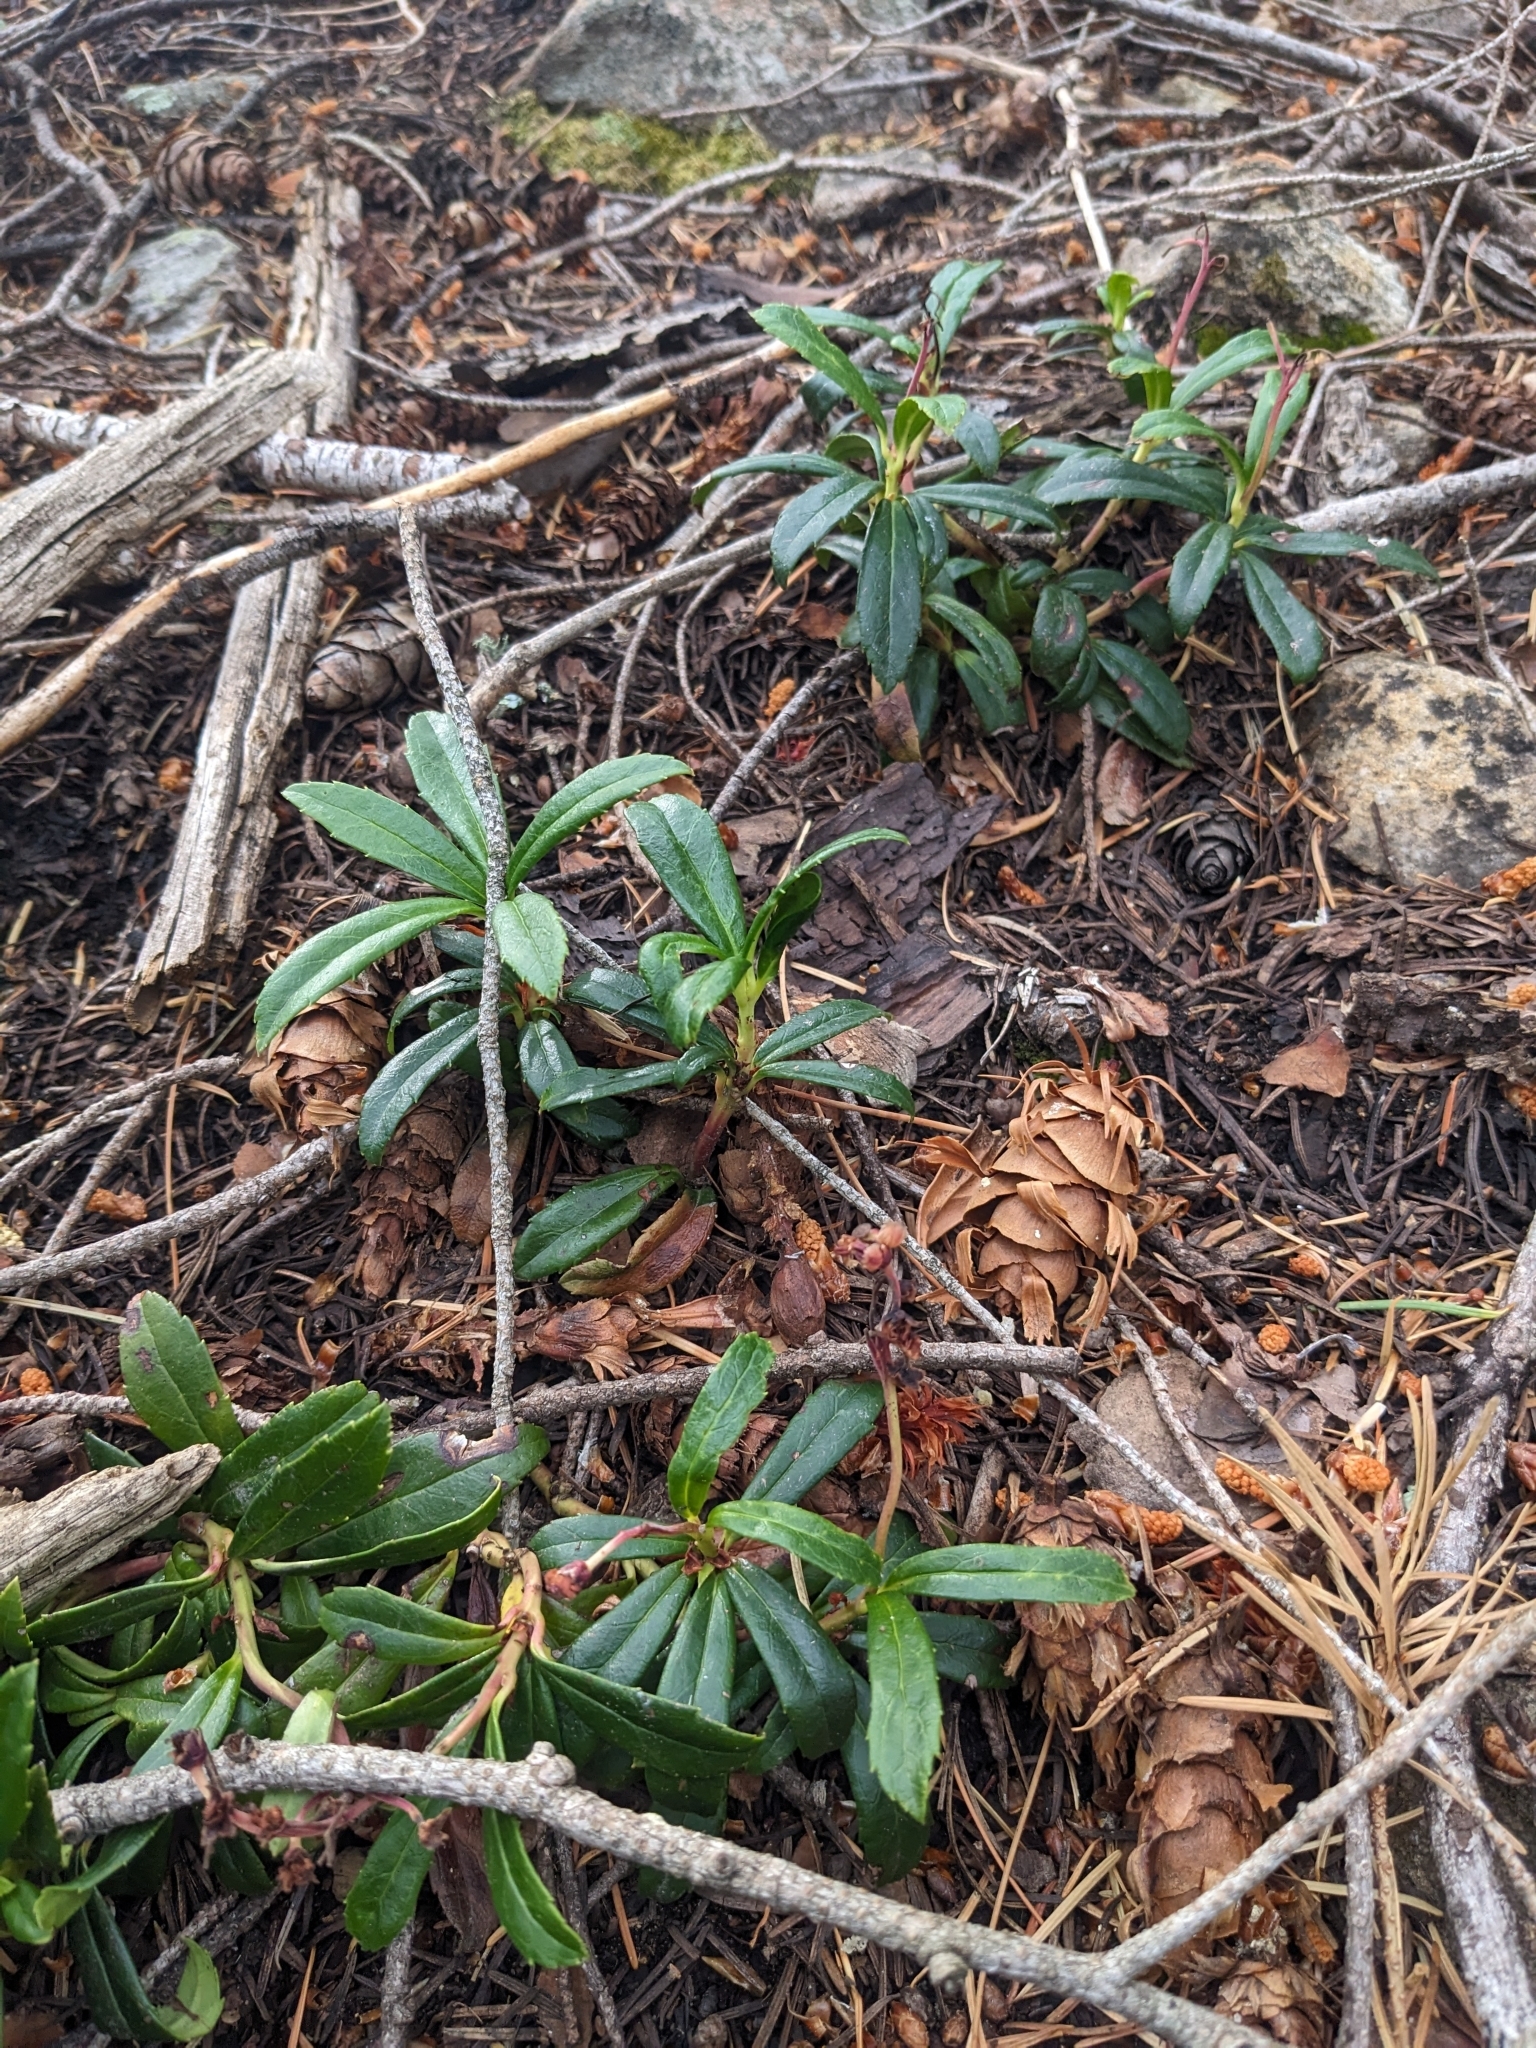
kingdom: Plantae
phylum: Tracheophyta
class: Magnoliopsida
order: Ericales
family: Ericaceae
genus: Chimaphila
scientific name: Chimaphila umbellata
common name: Pipsissewa
